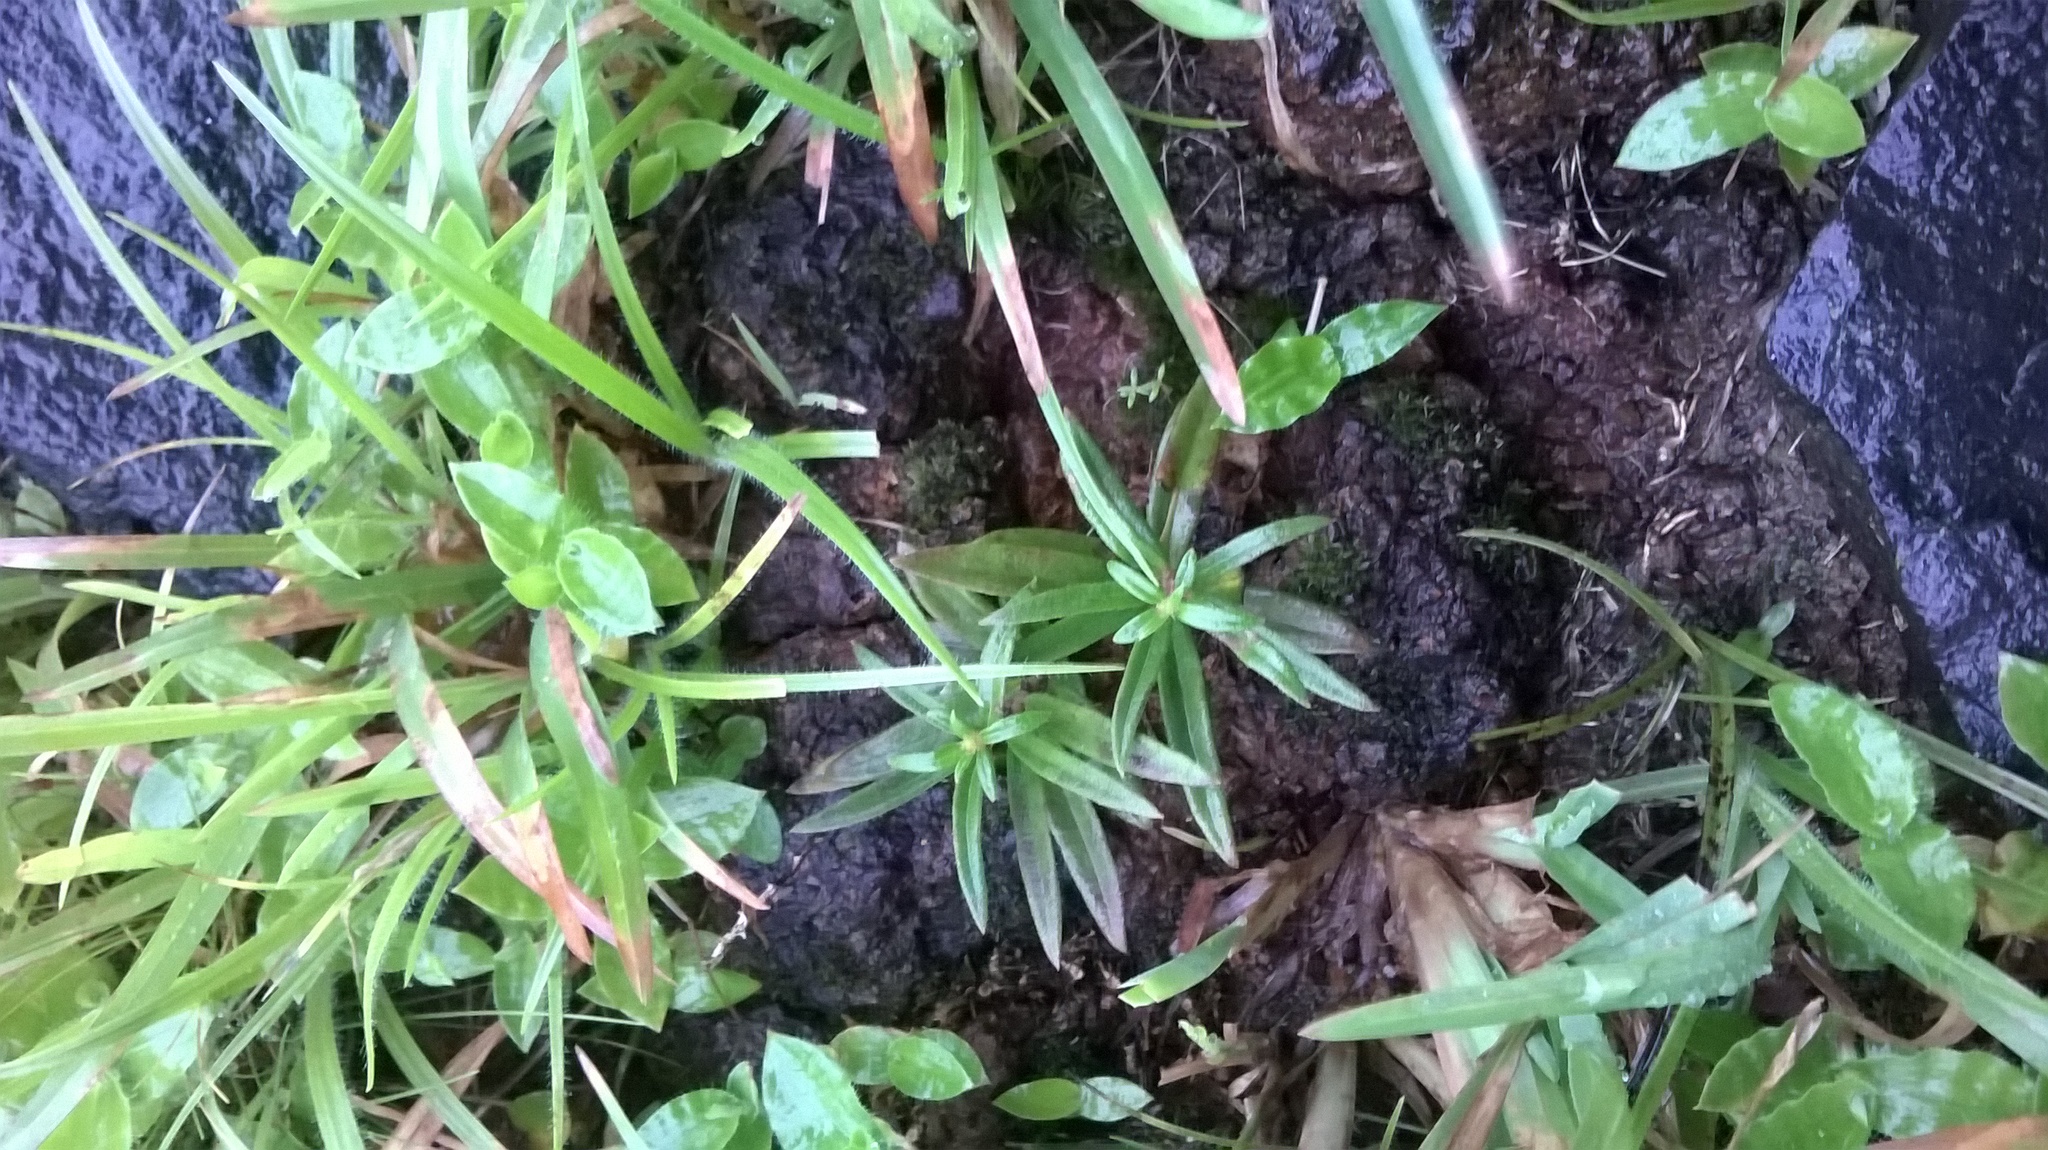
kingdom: Plantae
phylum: Tracheophyta
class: Magnoliopsida
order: Gentianales
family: Apocynaceae
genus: Ceropegia
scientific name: Ceropegia jainii
